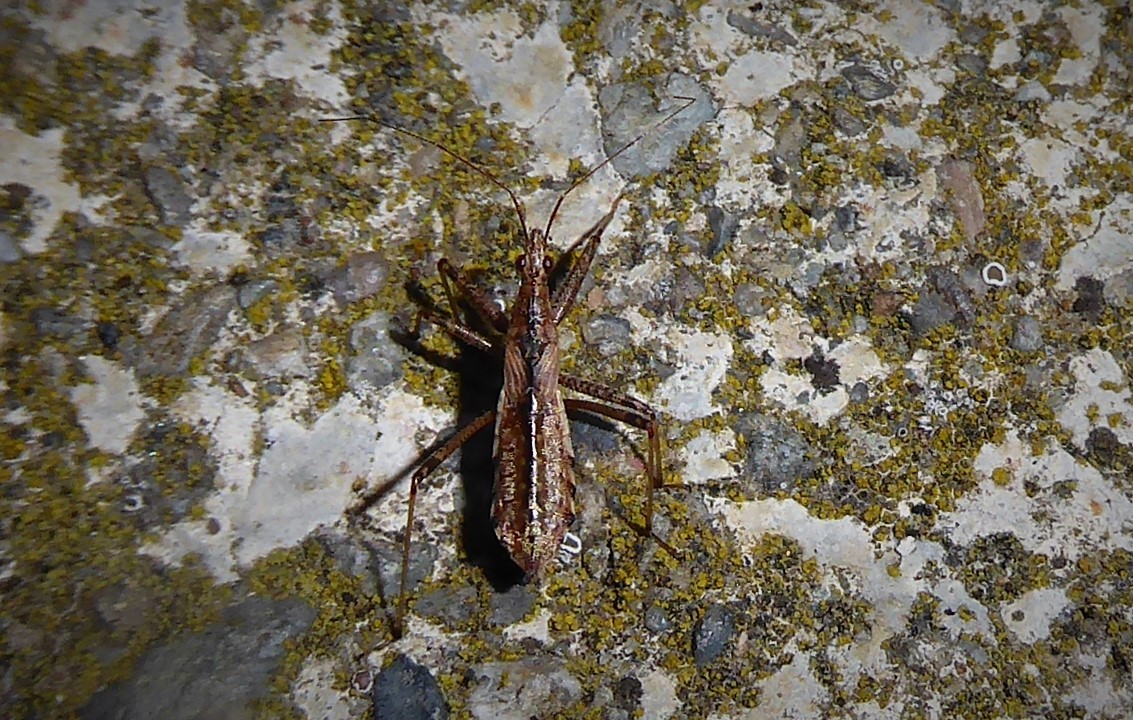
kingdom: Animalia
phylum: Arthropoda
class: Insecta
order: Hemiptera
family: Nabidae
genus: Nabis
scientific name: Nabis
